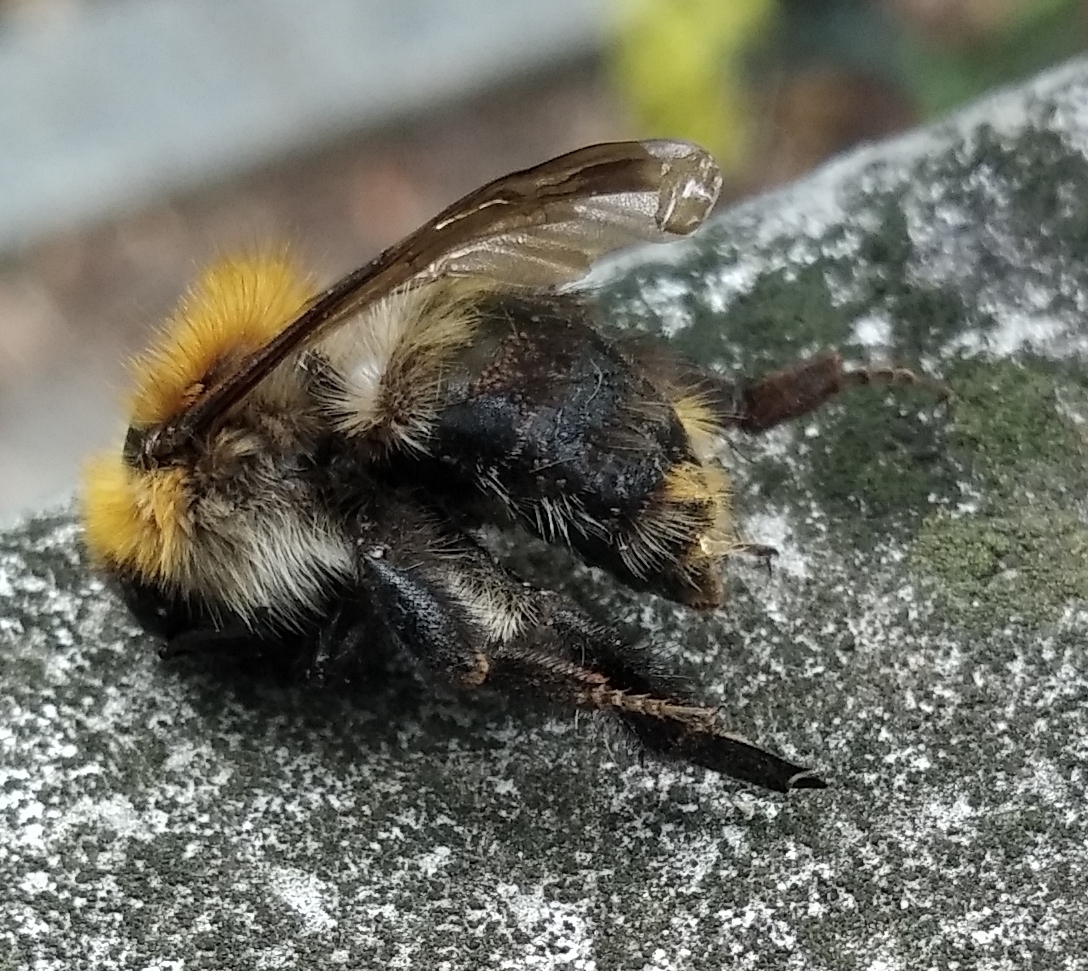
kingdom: Animalia
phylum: Arthropoda
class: Insecta
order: Hymenoptera
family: Apidae
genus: Bombus
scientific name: Bombus pascuorum
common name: Common carder bee
